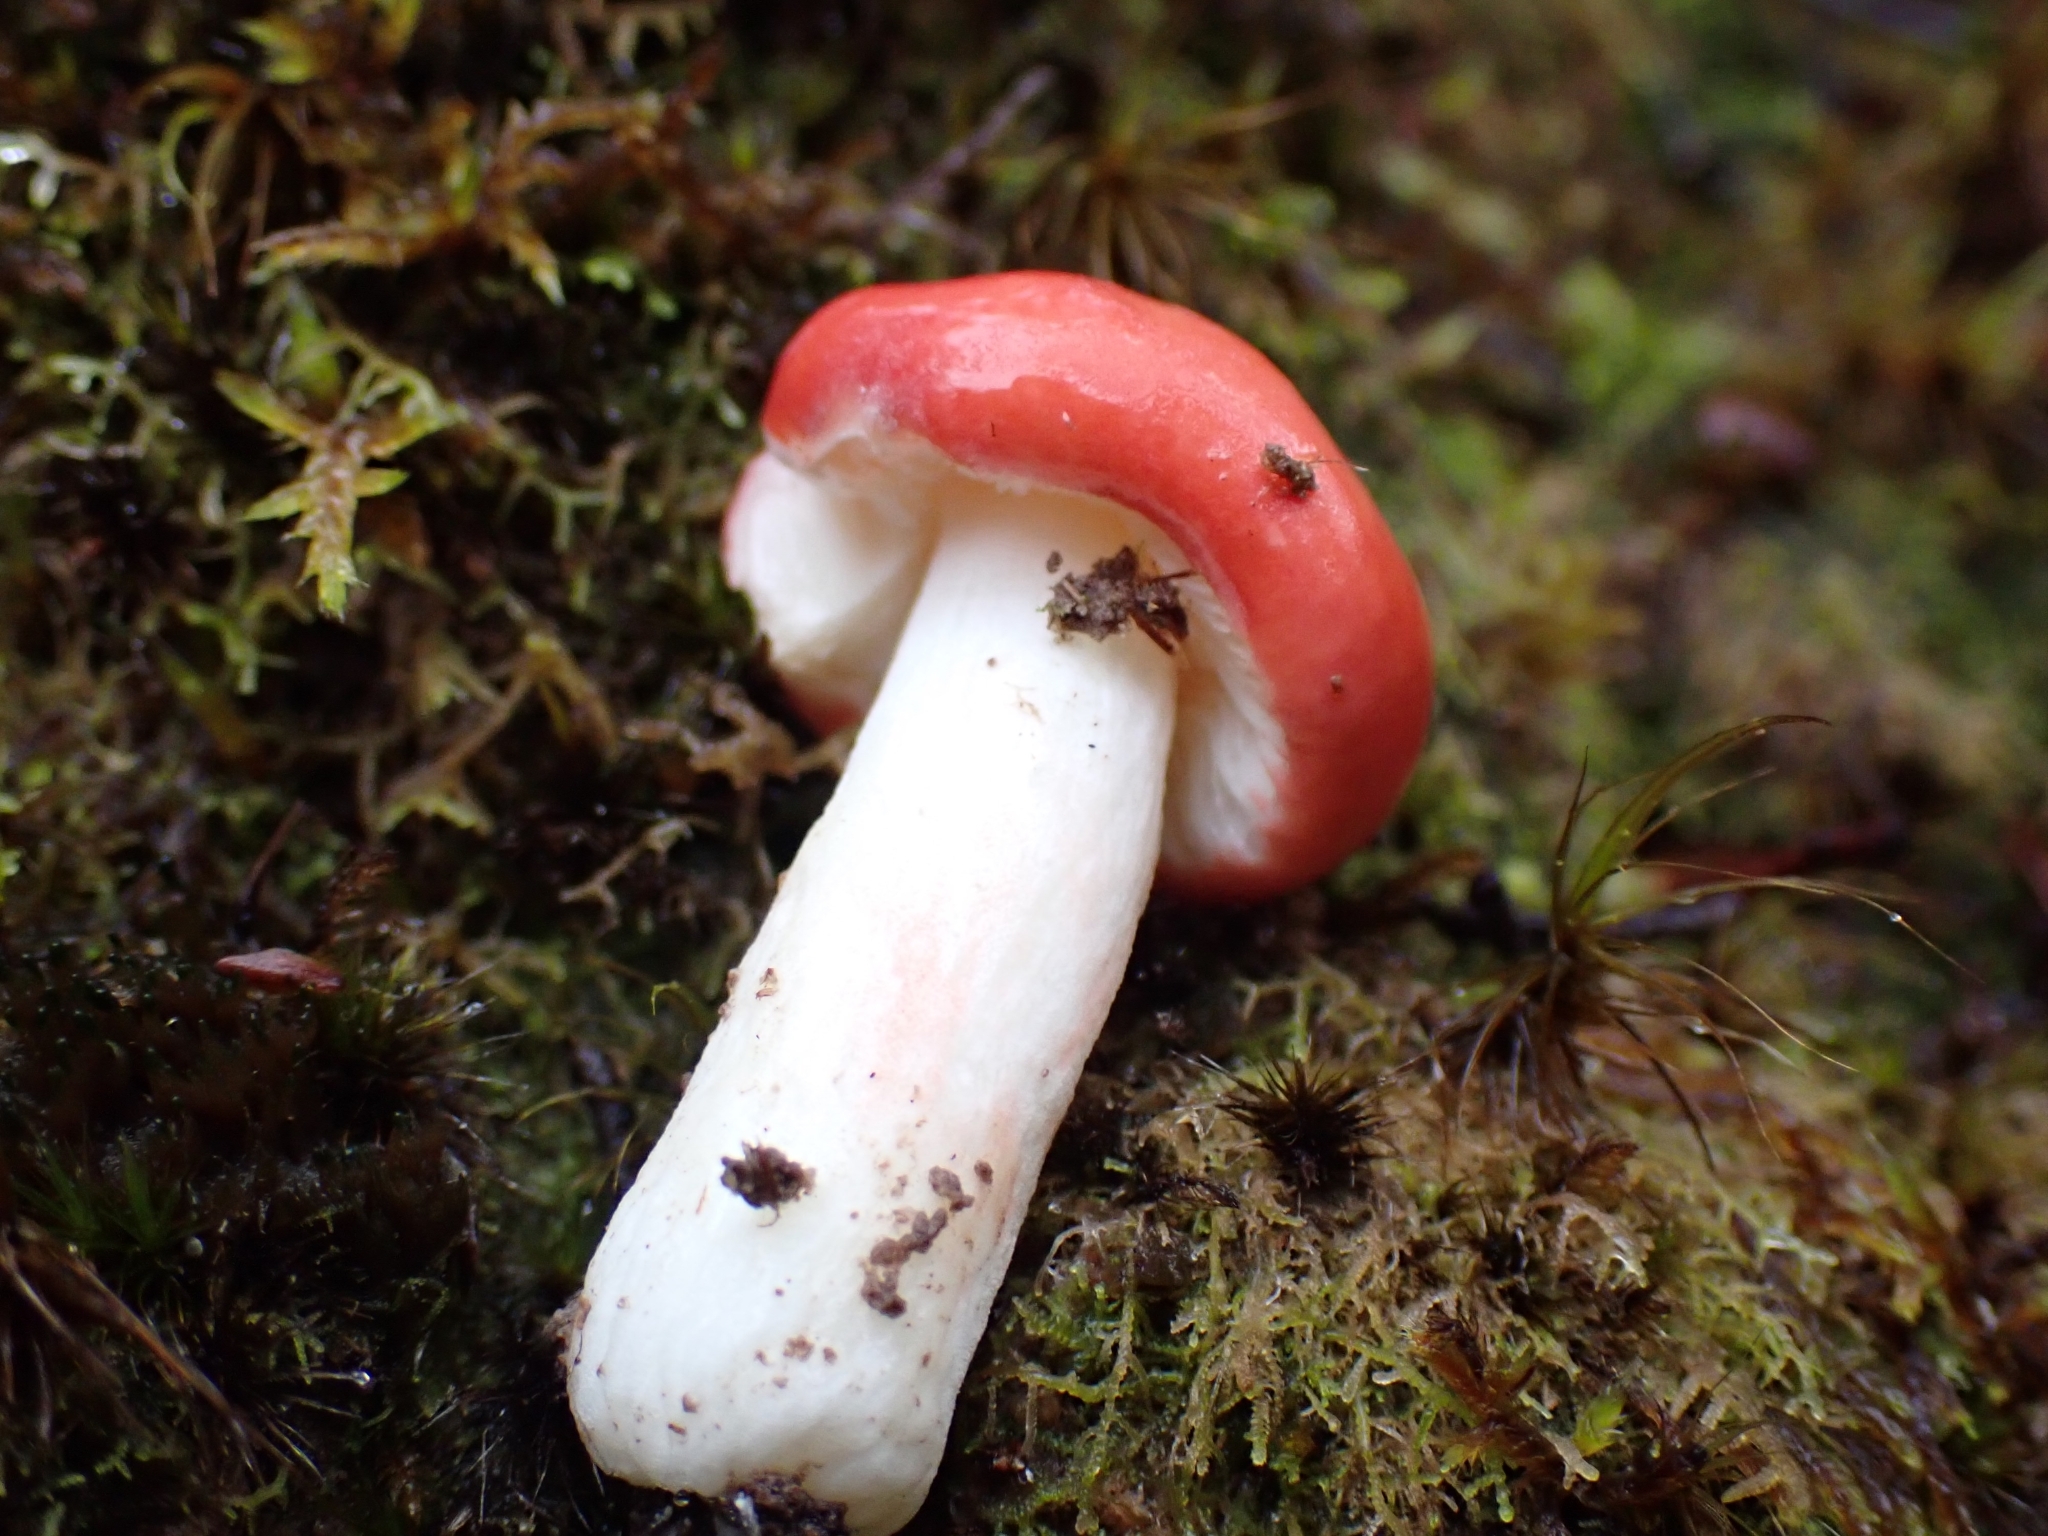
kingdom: Fungi
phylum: Basidiomycota
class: Agaricomycetes
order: Russulales
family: Russulaceae
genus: Russula
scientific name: Russula kermesina
